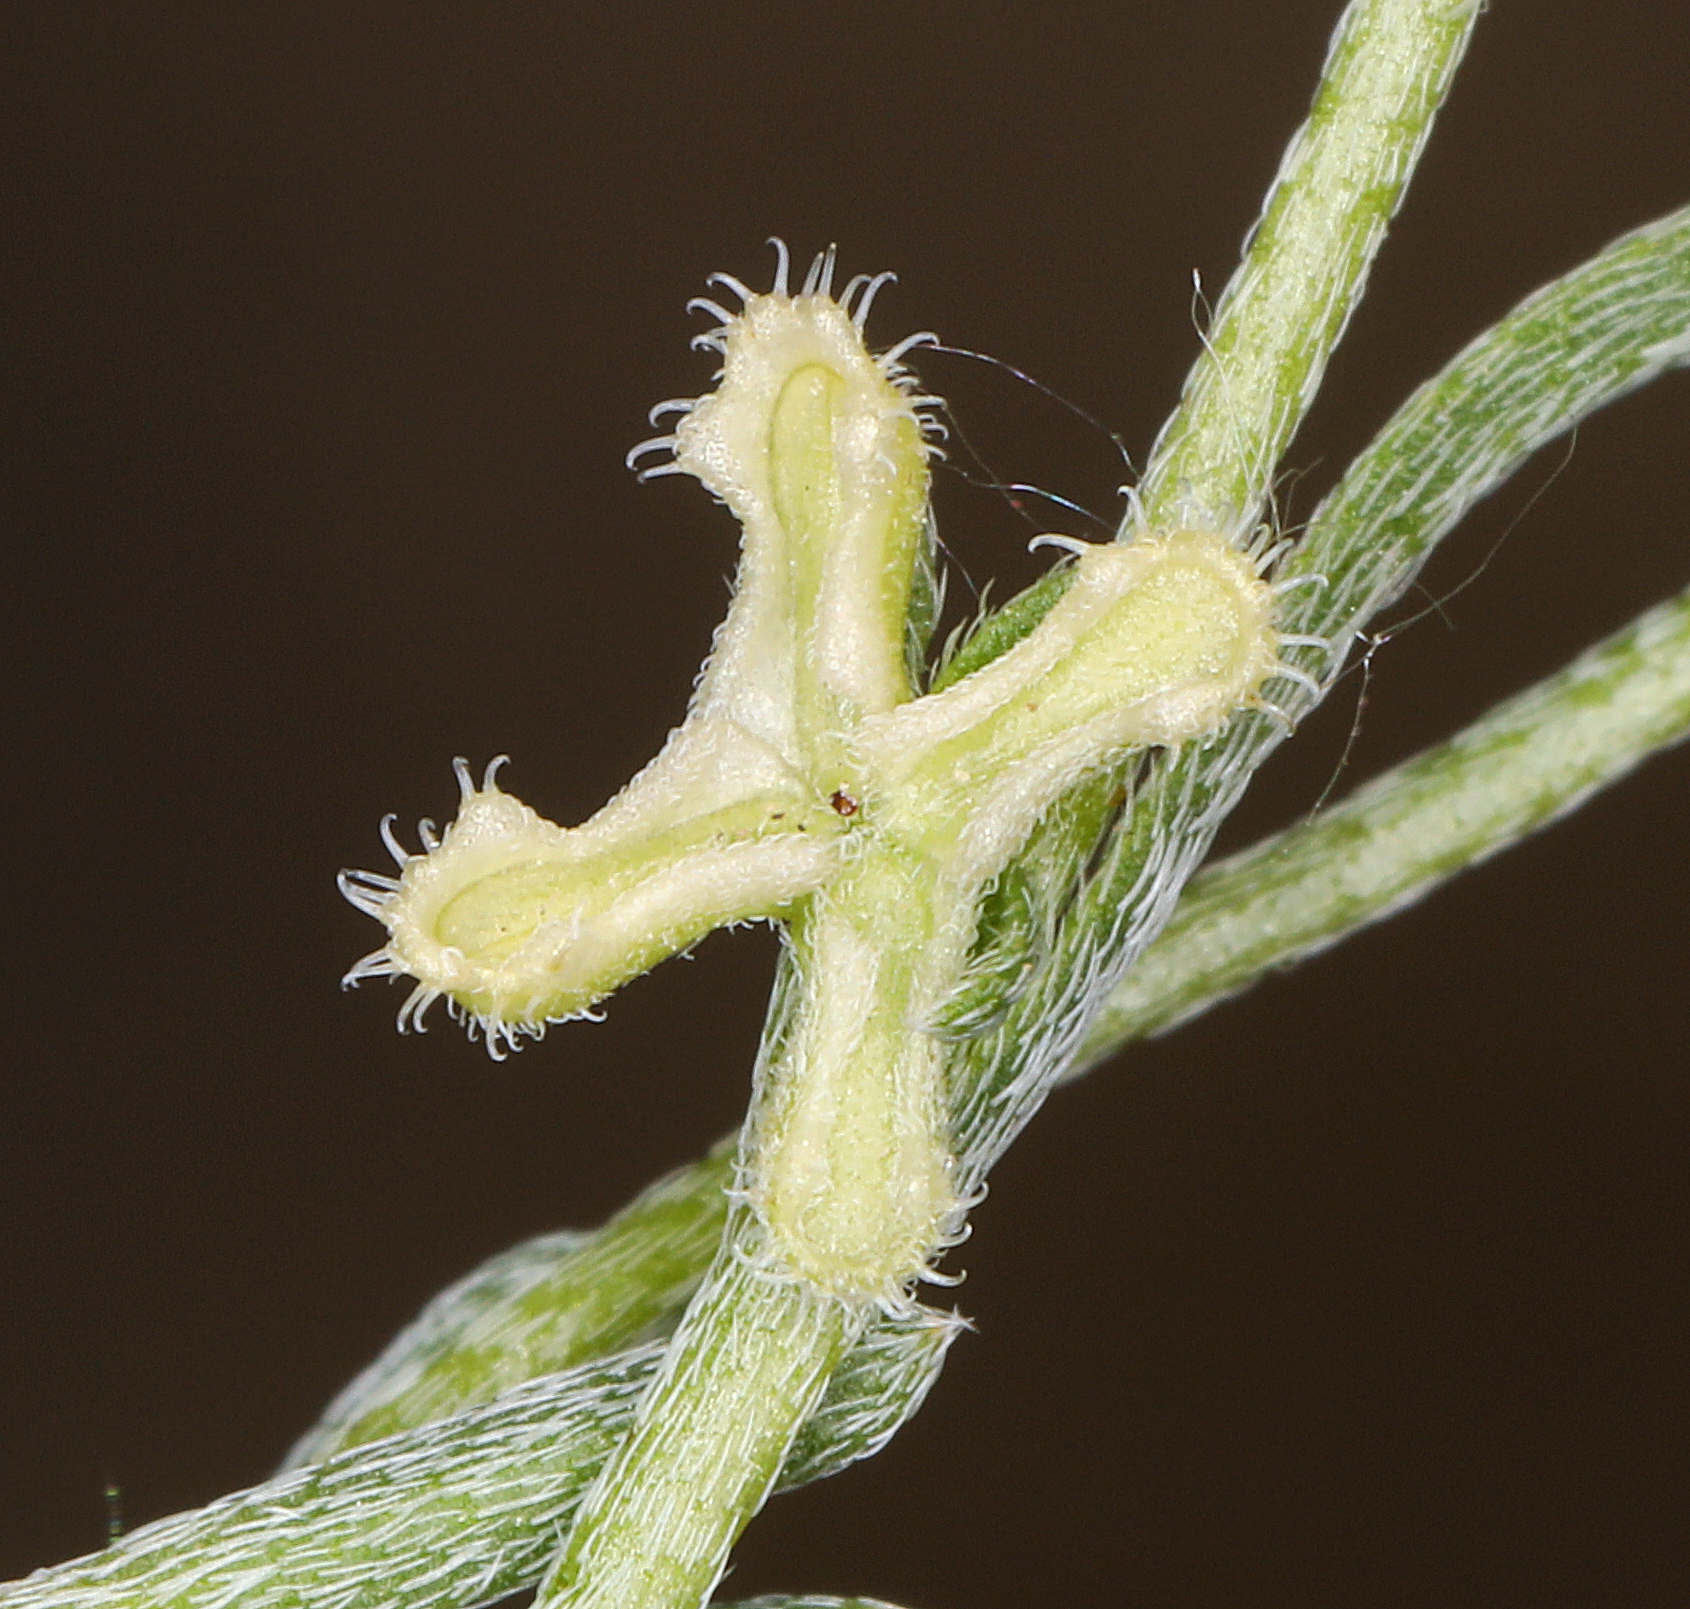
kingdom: Plantae
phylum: Tracheophyta
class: Magnoliopsida
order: Boraginales
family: Boraginaceae
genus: Pectocarya
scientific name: Pectocarya penicillata
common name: Short-leaved combseed
